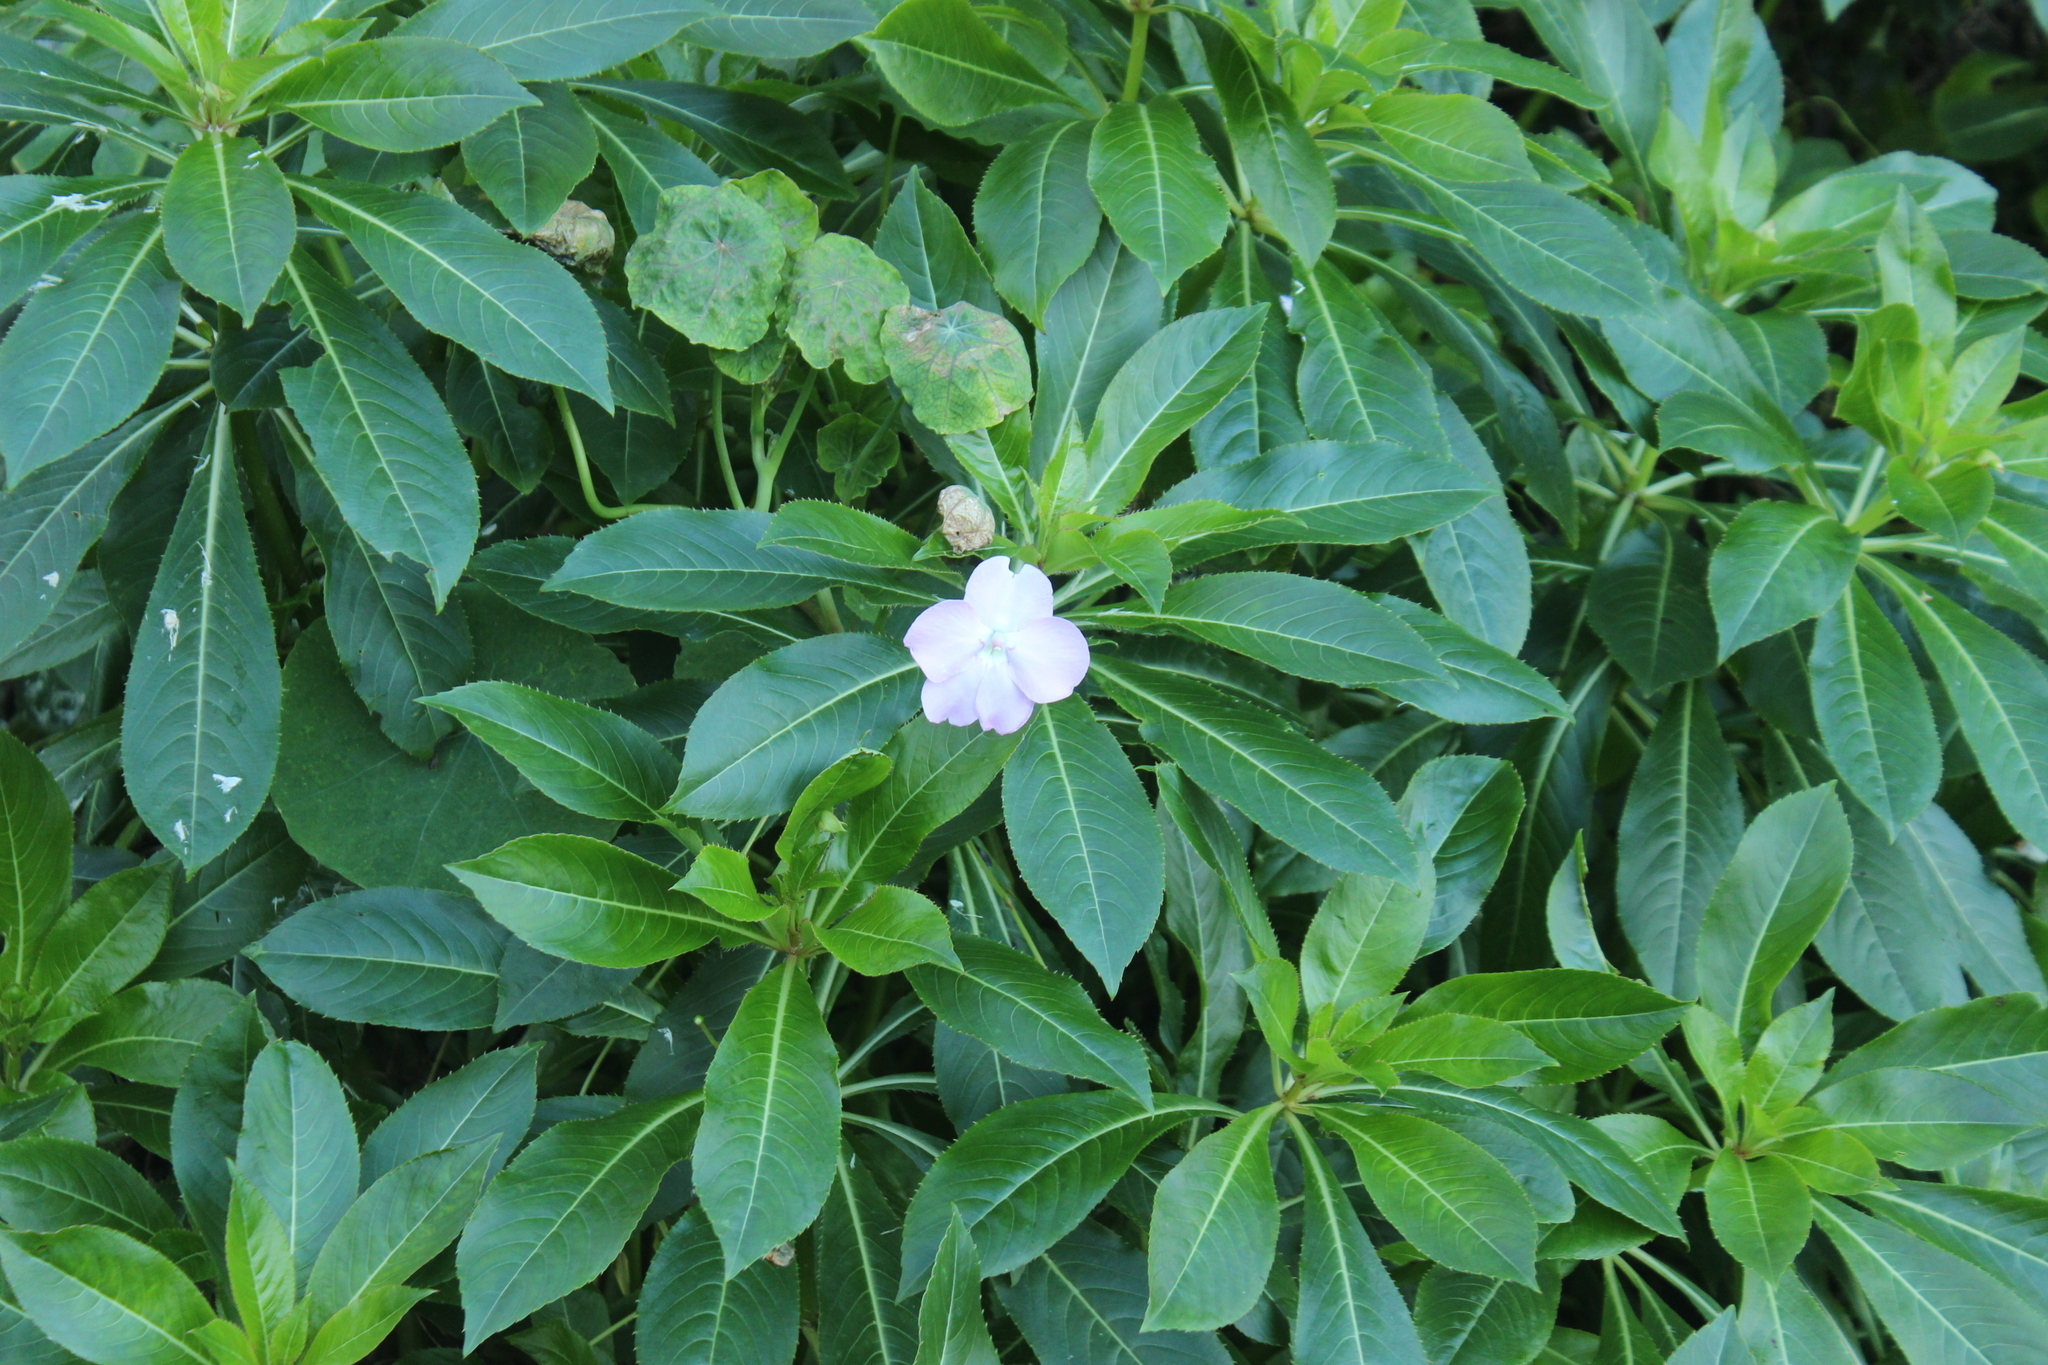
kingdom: Plantae
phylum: Tracheophyta
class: Magnoliopsida
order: Ericales
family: Balsaminaceae
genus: Impatiens
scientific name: Impatiens sodenii
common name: Oliver's touch-me-not
